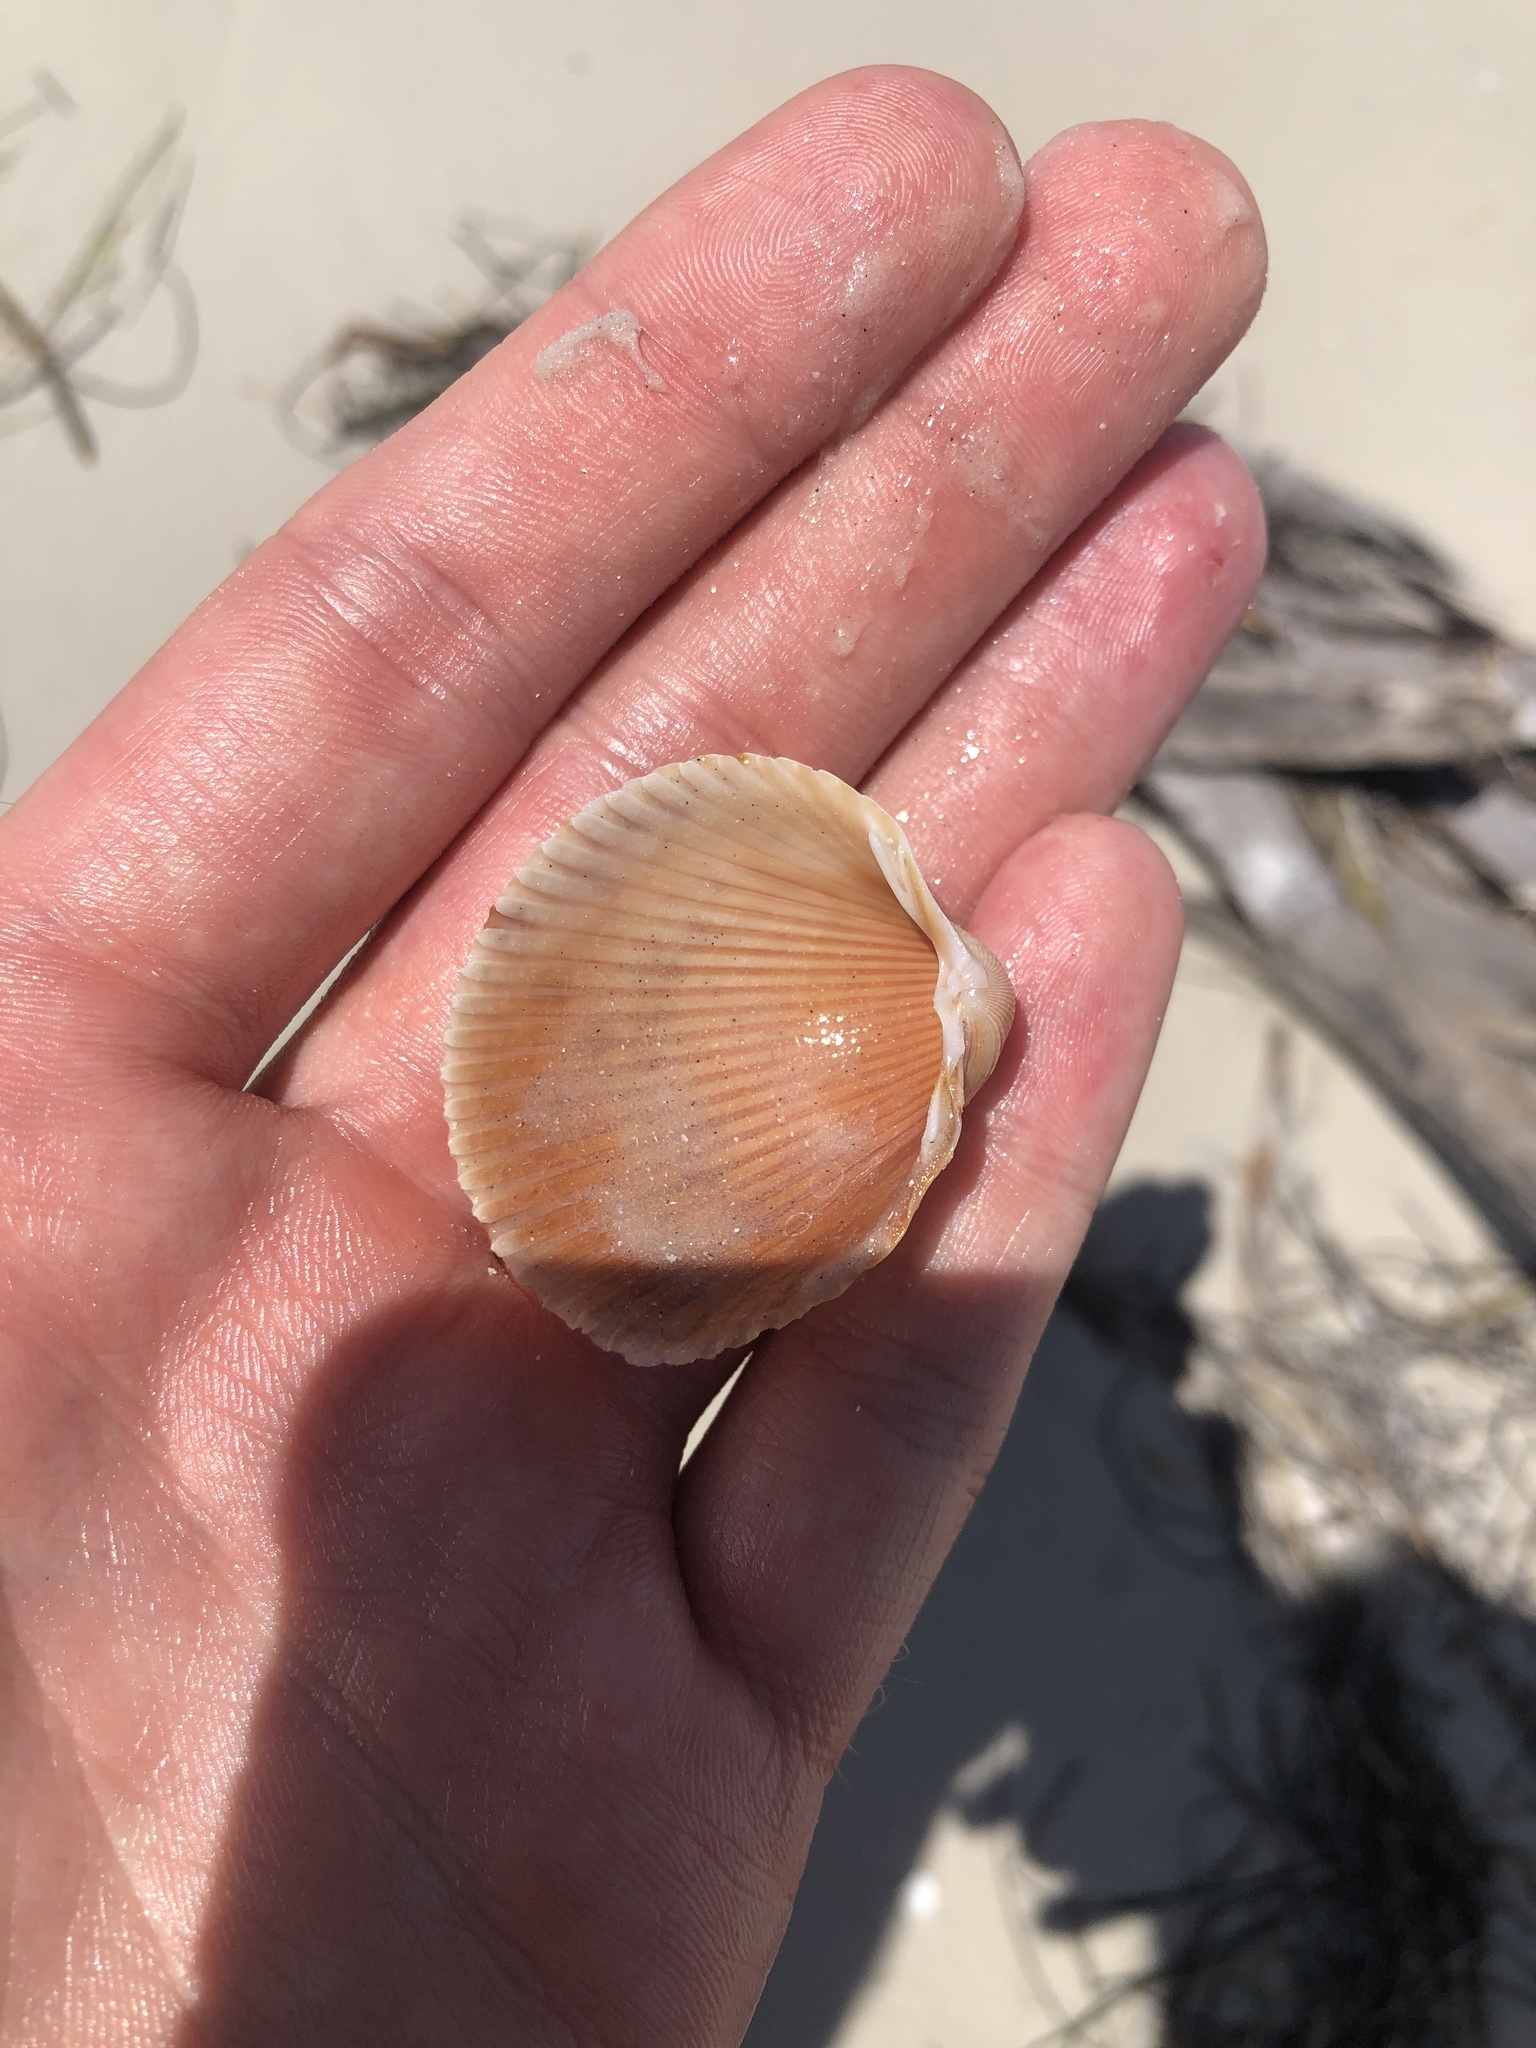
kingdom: Animalia
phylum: Mollusca
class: Bivalvia
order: Cardiida
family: Cardiidae
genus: Dinocardium
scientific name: Dinocardium robustum
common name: Atlantic giant cockle
